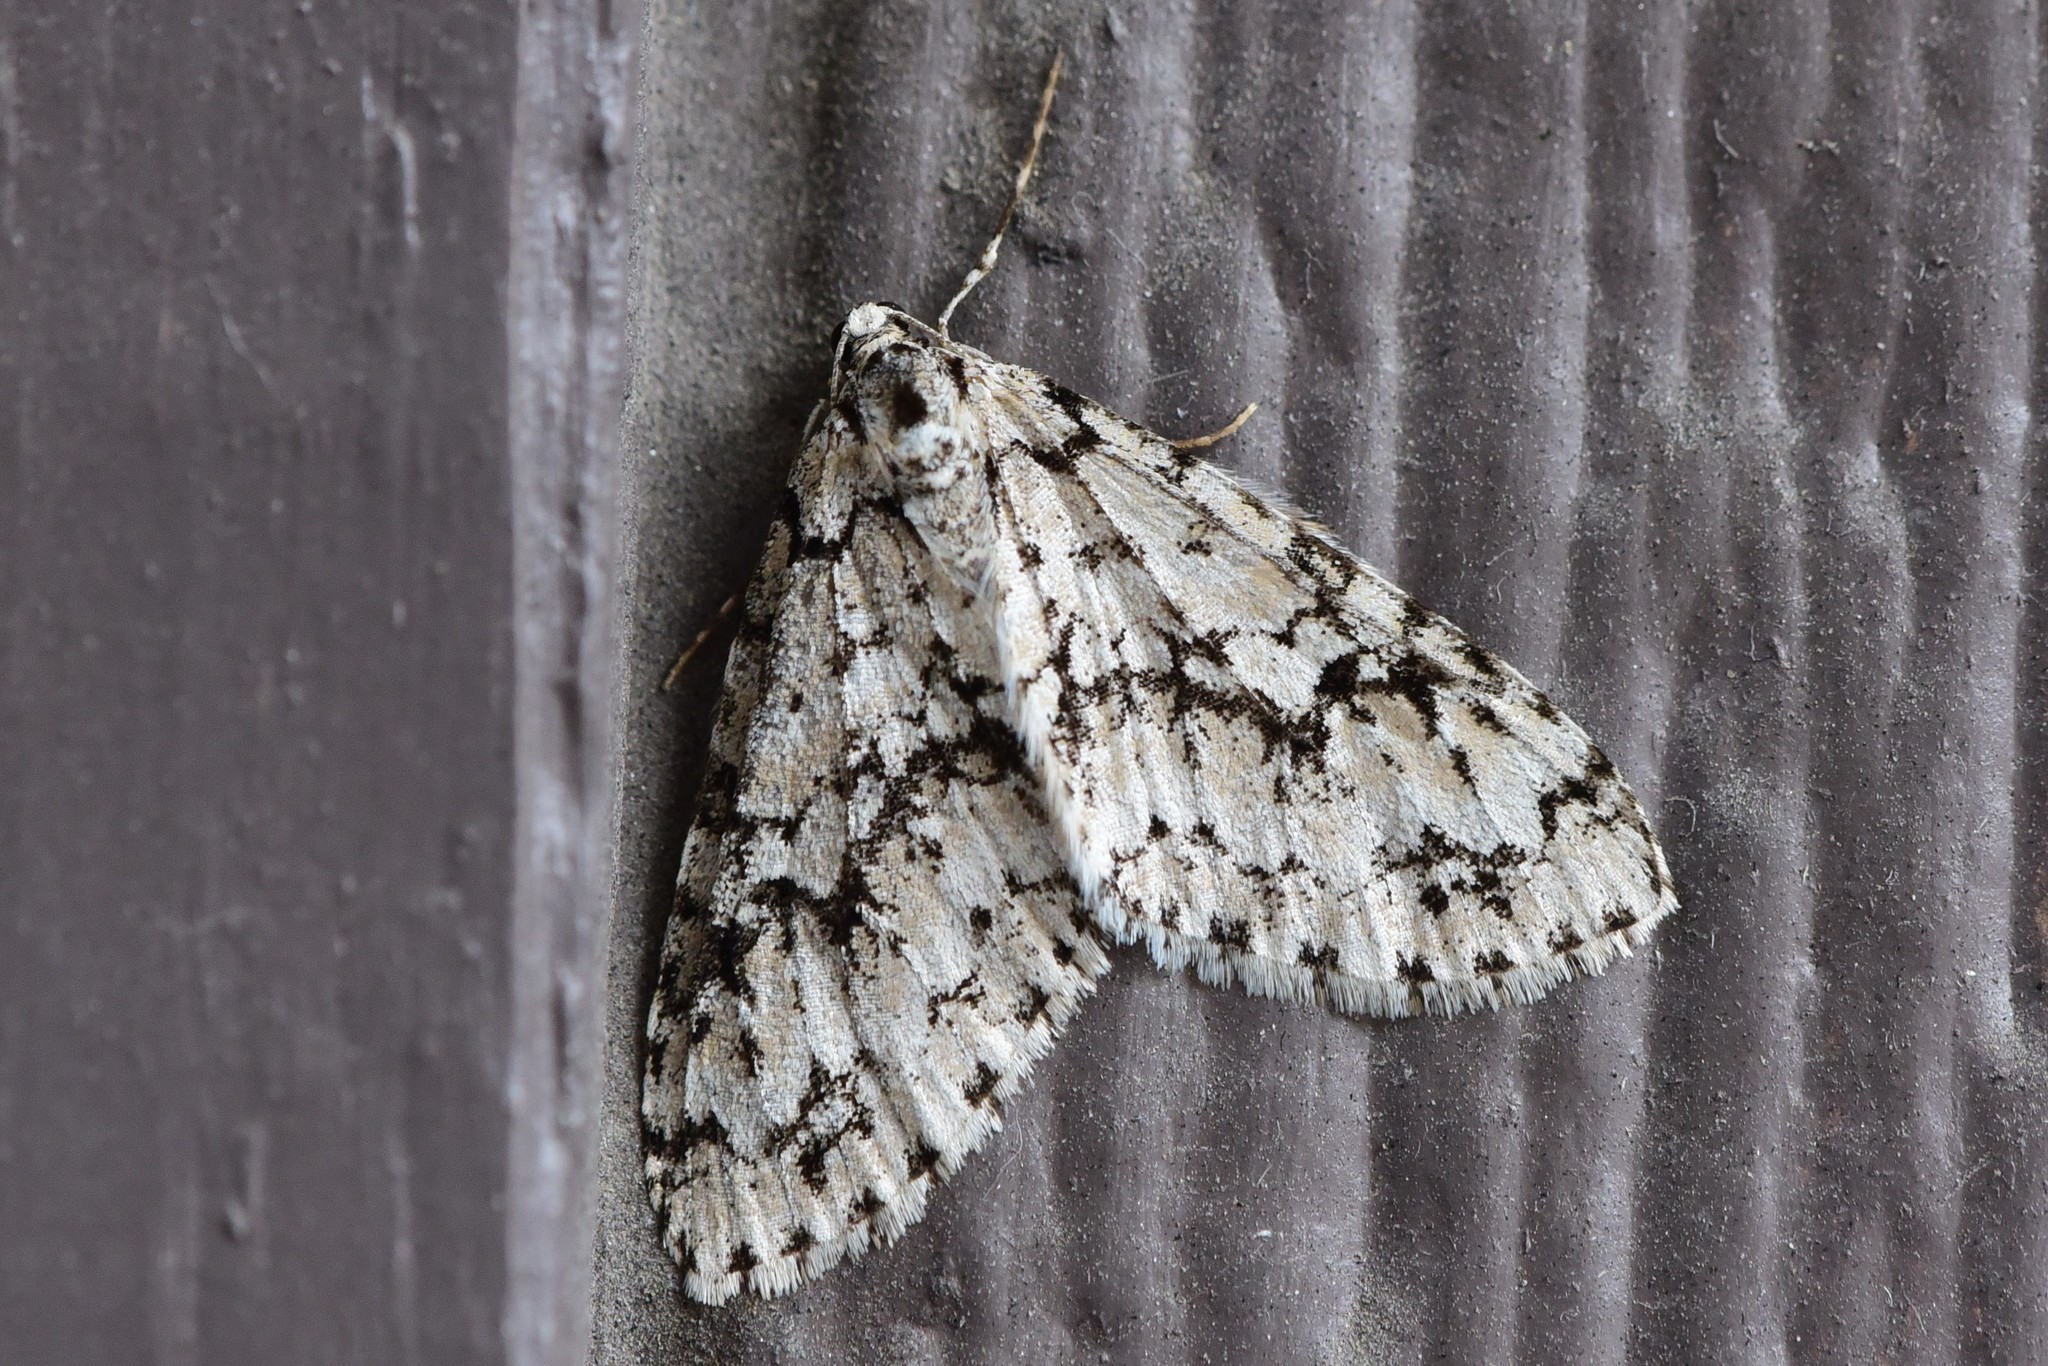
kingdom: Animalia
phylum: Arthropoda
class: Insecta
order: Lepidoptera
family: Geometridae
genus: Cladara
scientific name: Cladara atroliturata
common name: Scribbler
